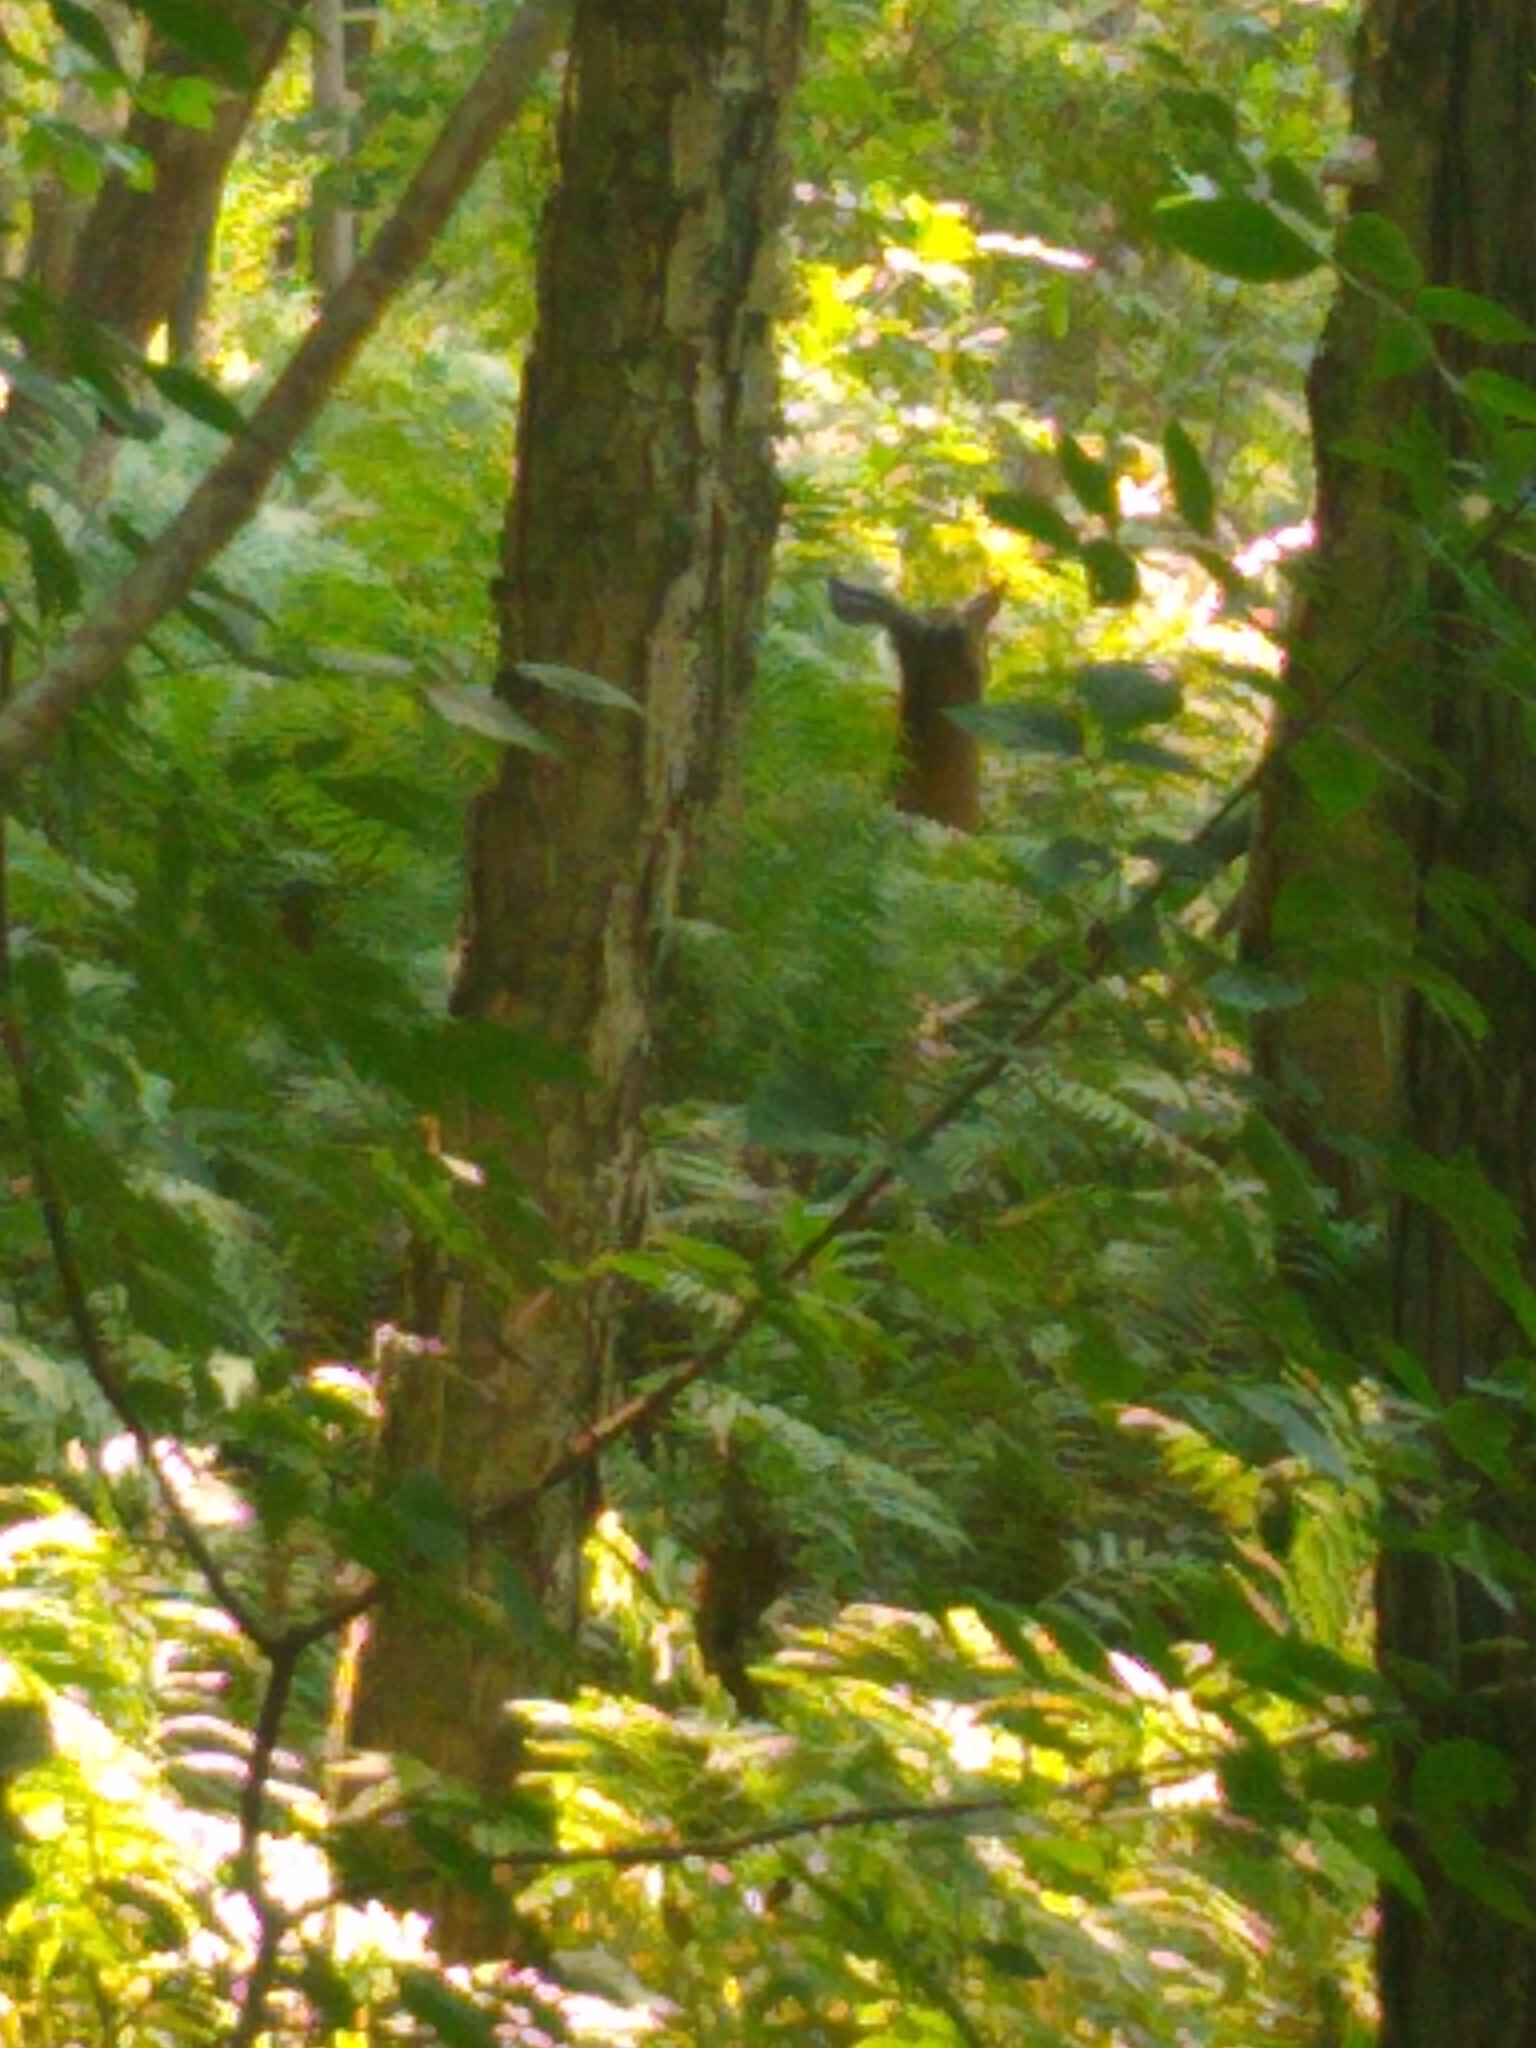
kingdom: Animalia
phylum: Chordata
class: Mammalia
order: Artiodactyla
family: Cervidae
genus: Odocoileus
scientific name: Odocoileus virginianus
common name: White-tailed deer
